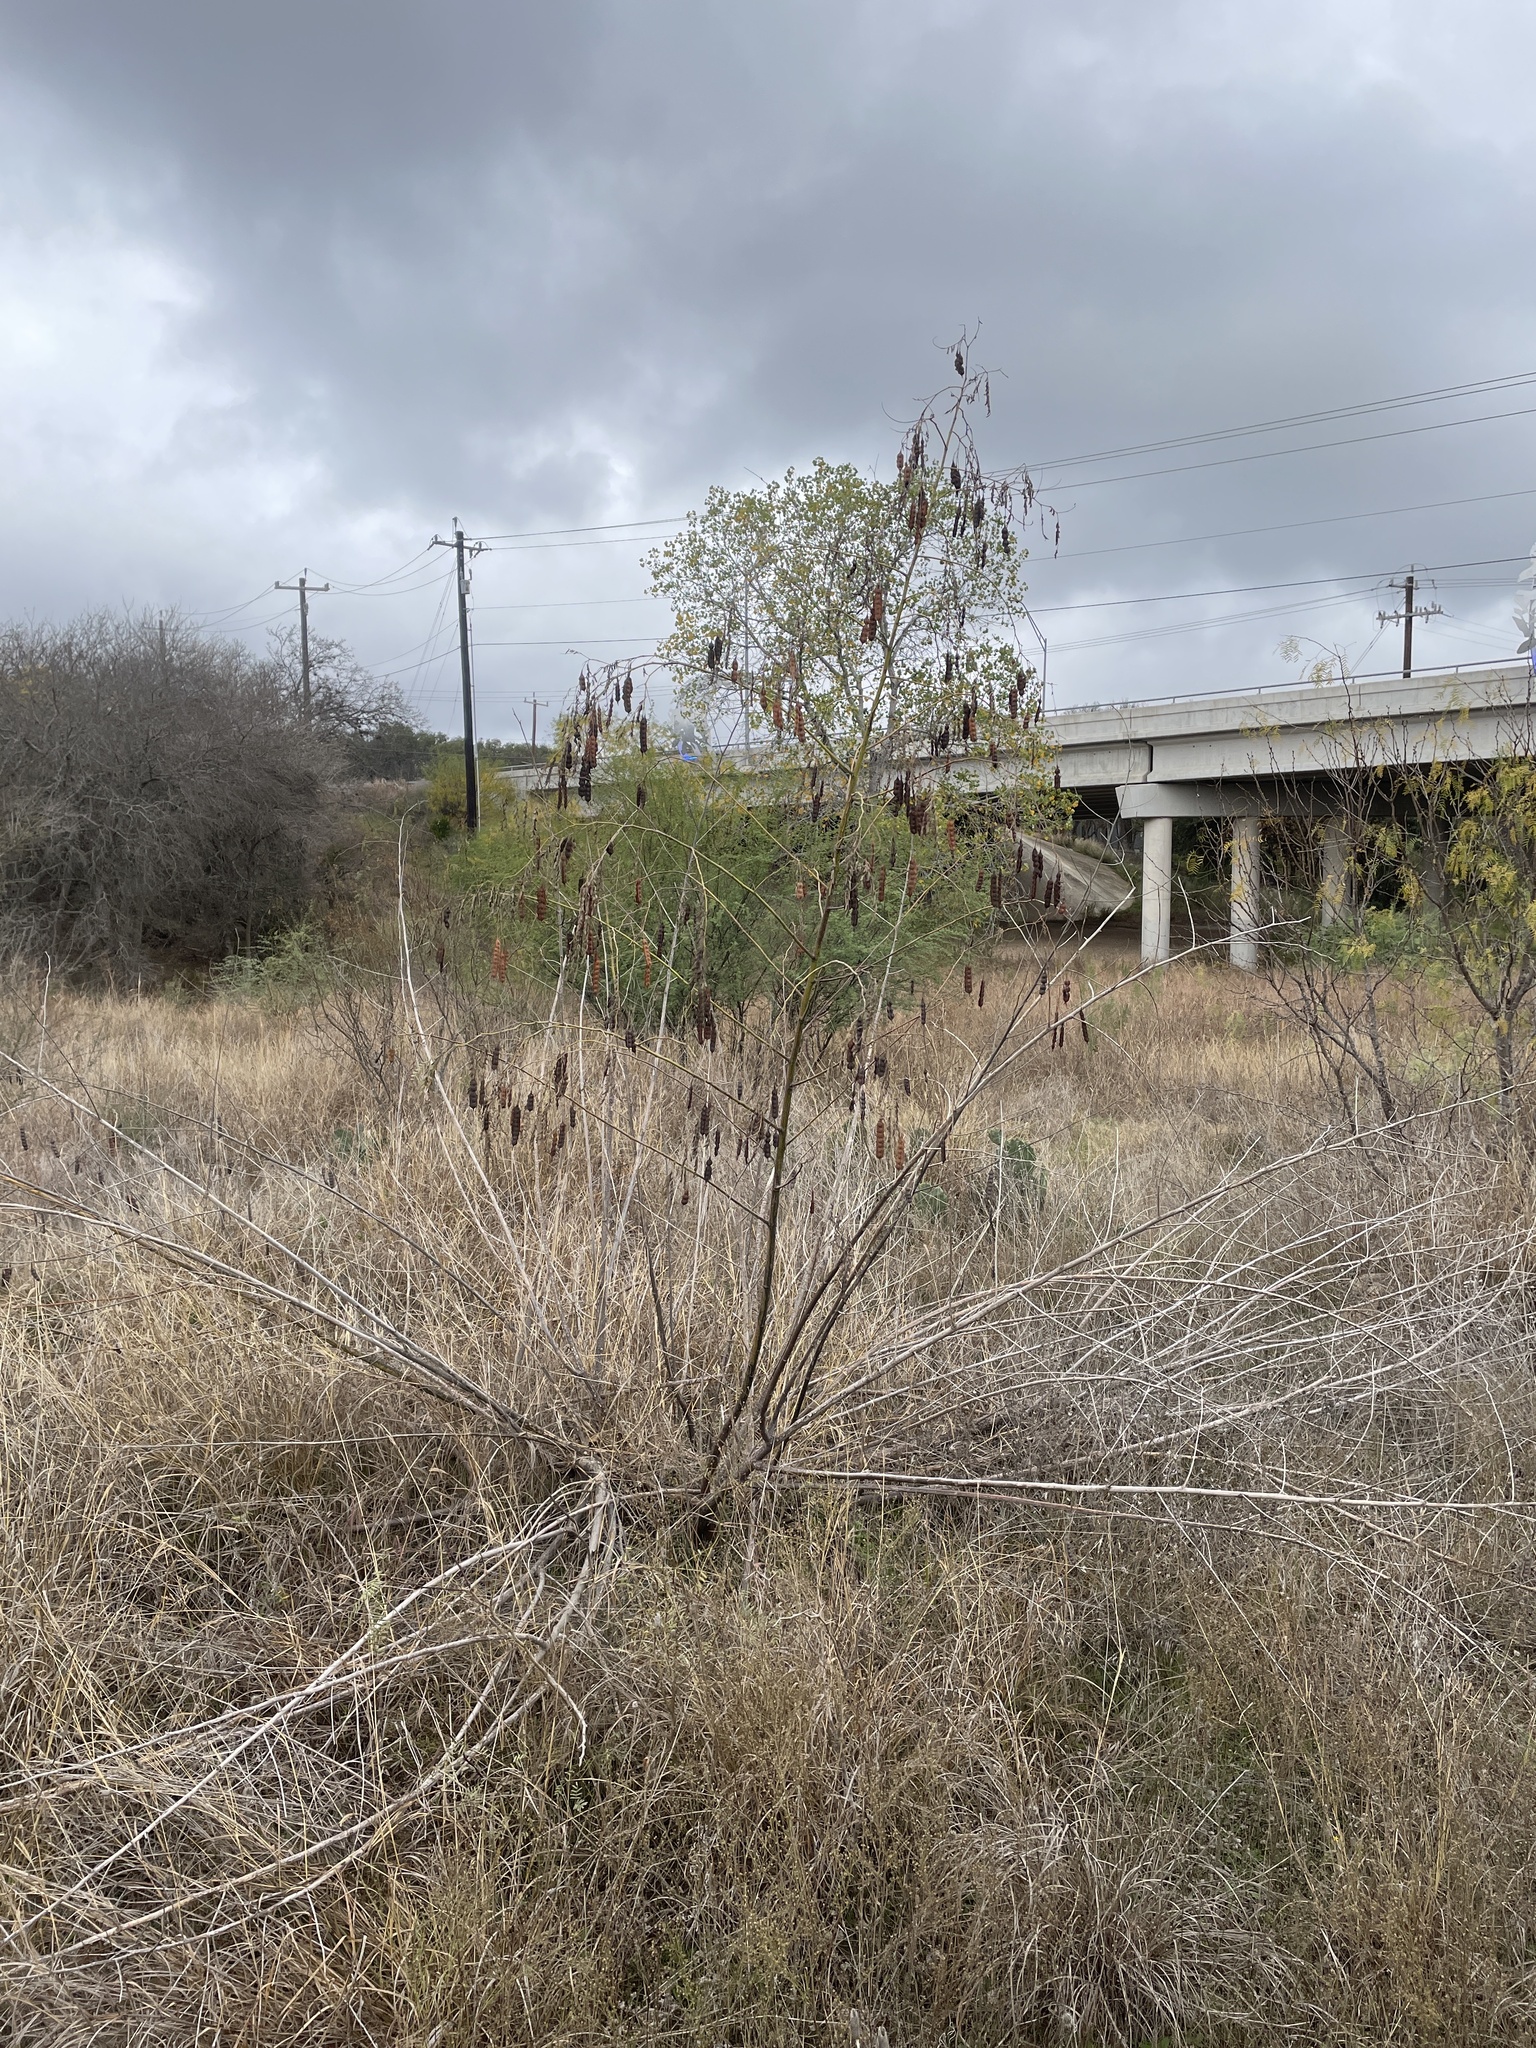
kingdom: Plantae
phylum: Tracheophyta
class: Magnoliopsida
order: Fabales
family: Fabaceae
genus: Sesbania
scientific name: Sesbania drummondii
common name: Poison-bean
